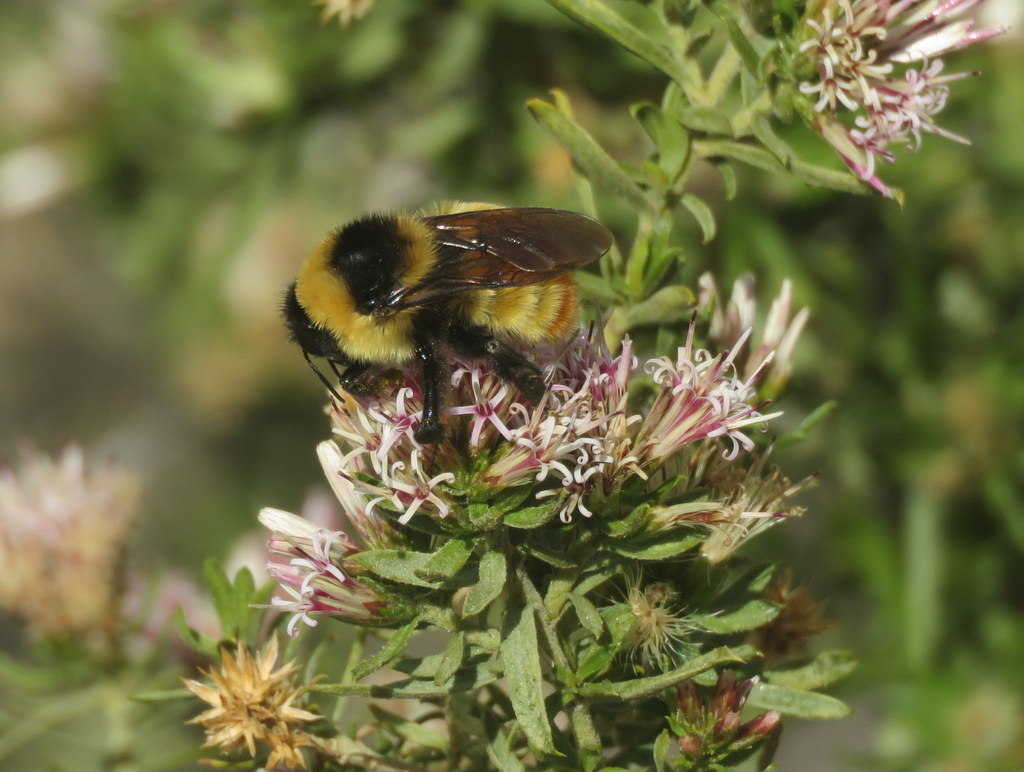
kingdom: Animalia
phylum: Arthropoda
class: Insecta
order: Hymenoptera
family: Apidae
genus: Bombus
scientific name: Bombus opifex
